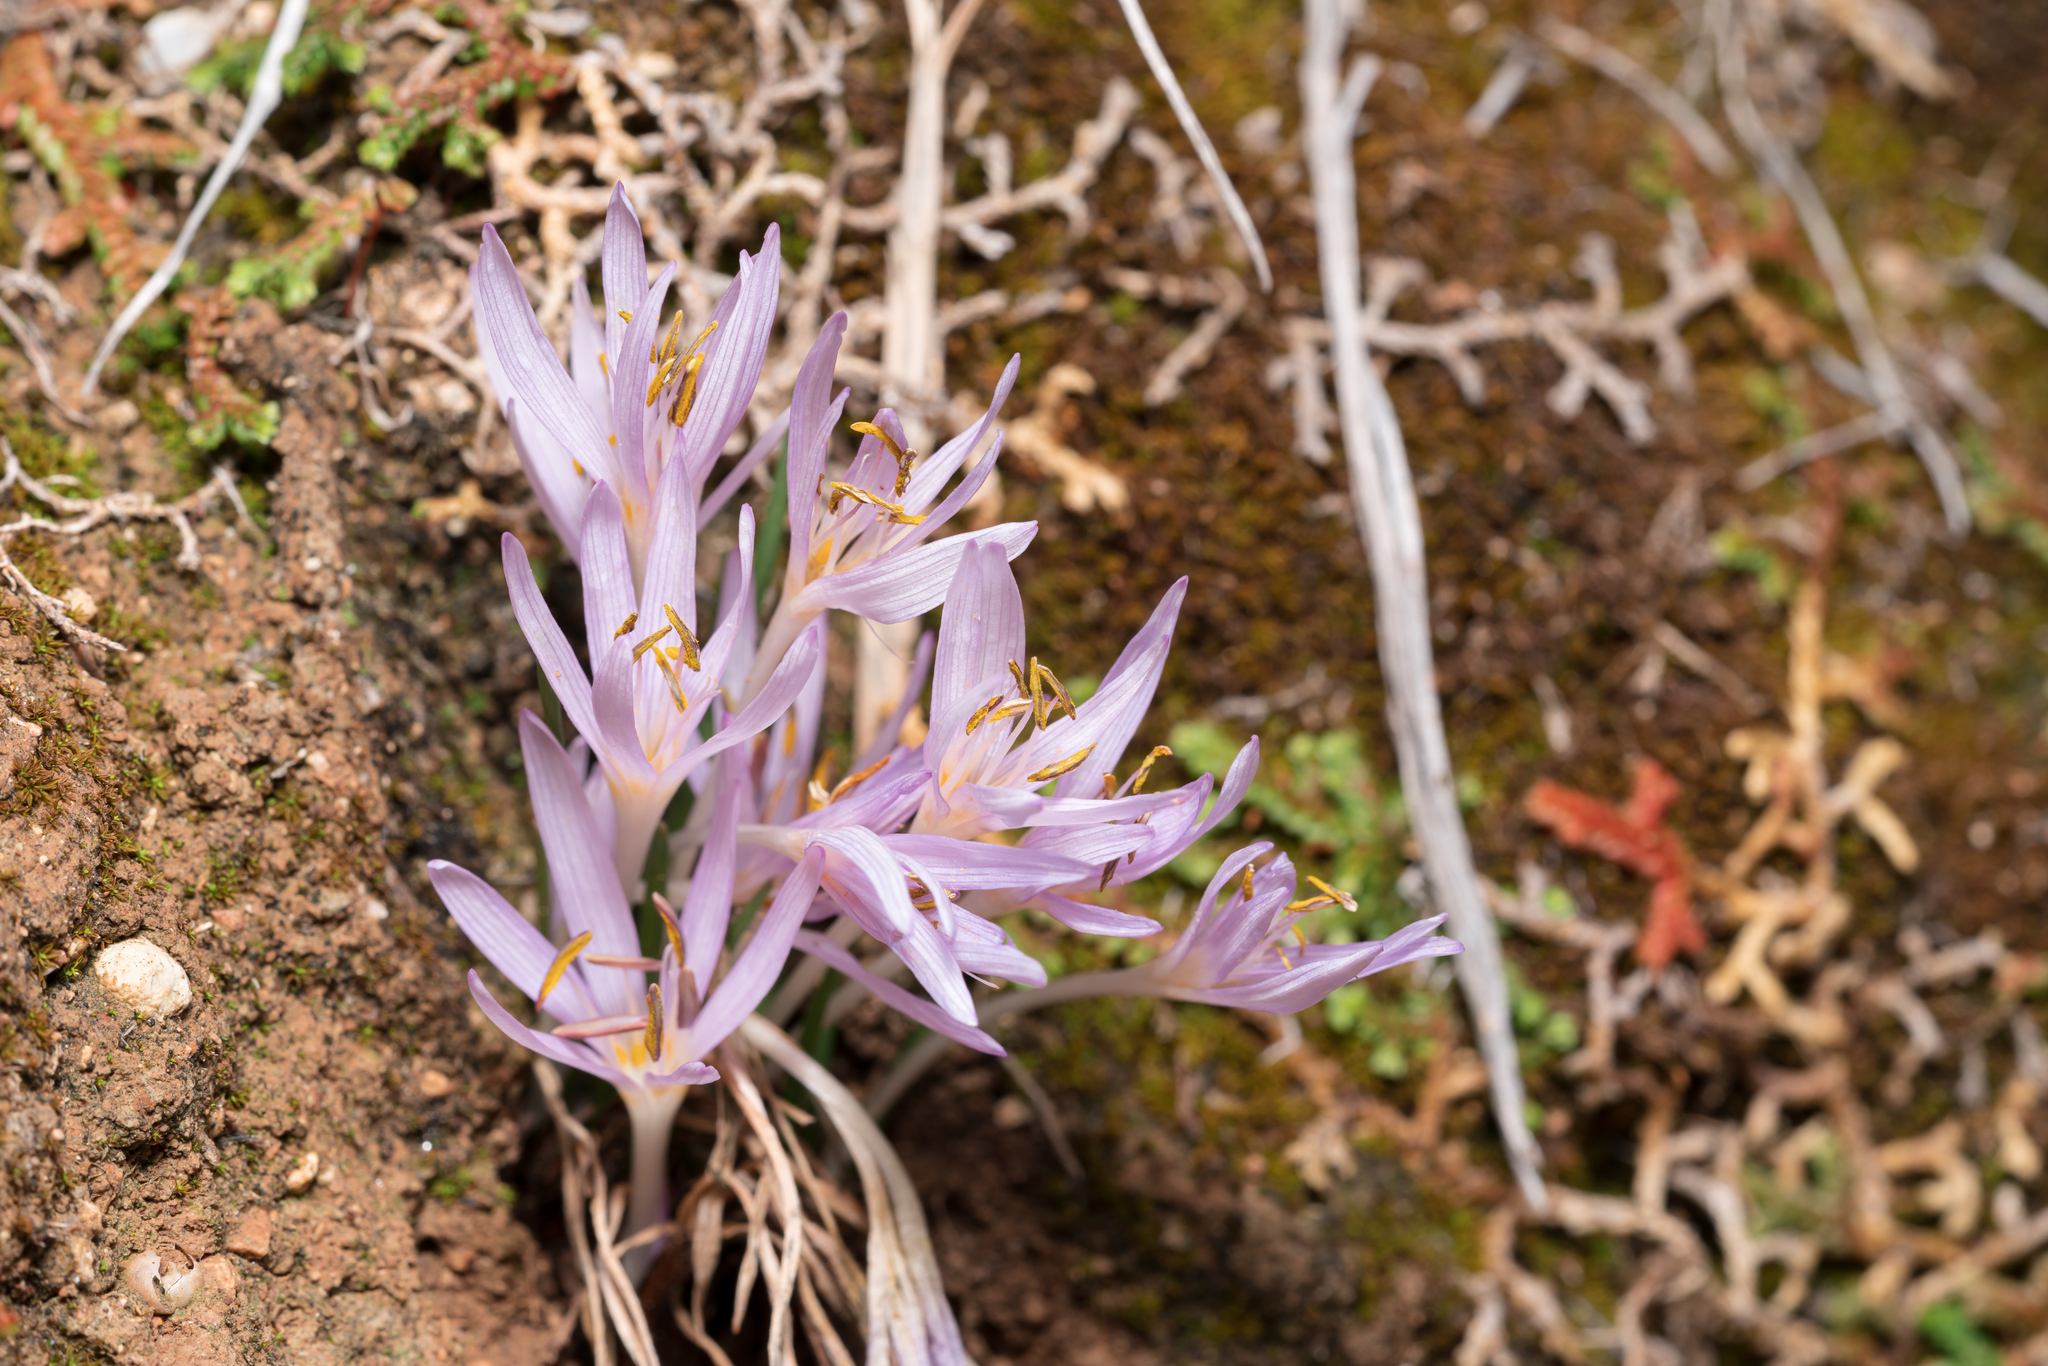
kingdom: Plantae
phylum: Tracheophyta
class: Liliopsida
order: Liliales
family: Colchicaceae
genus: Colchicum
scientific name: Colchicum pusillum
